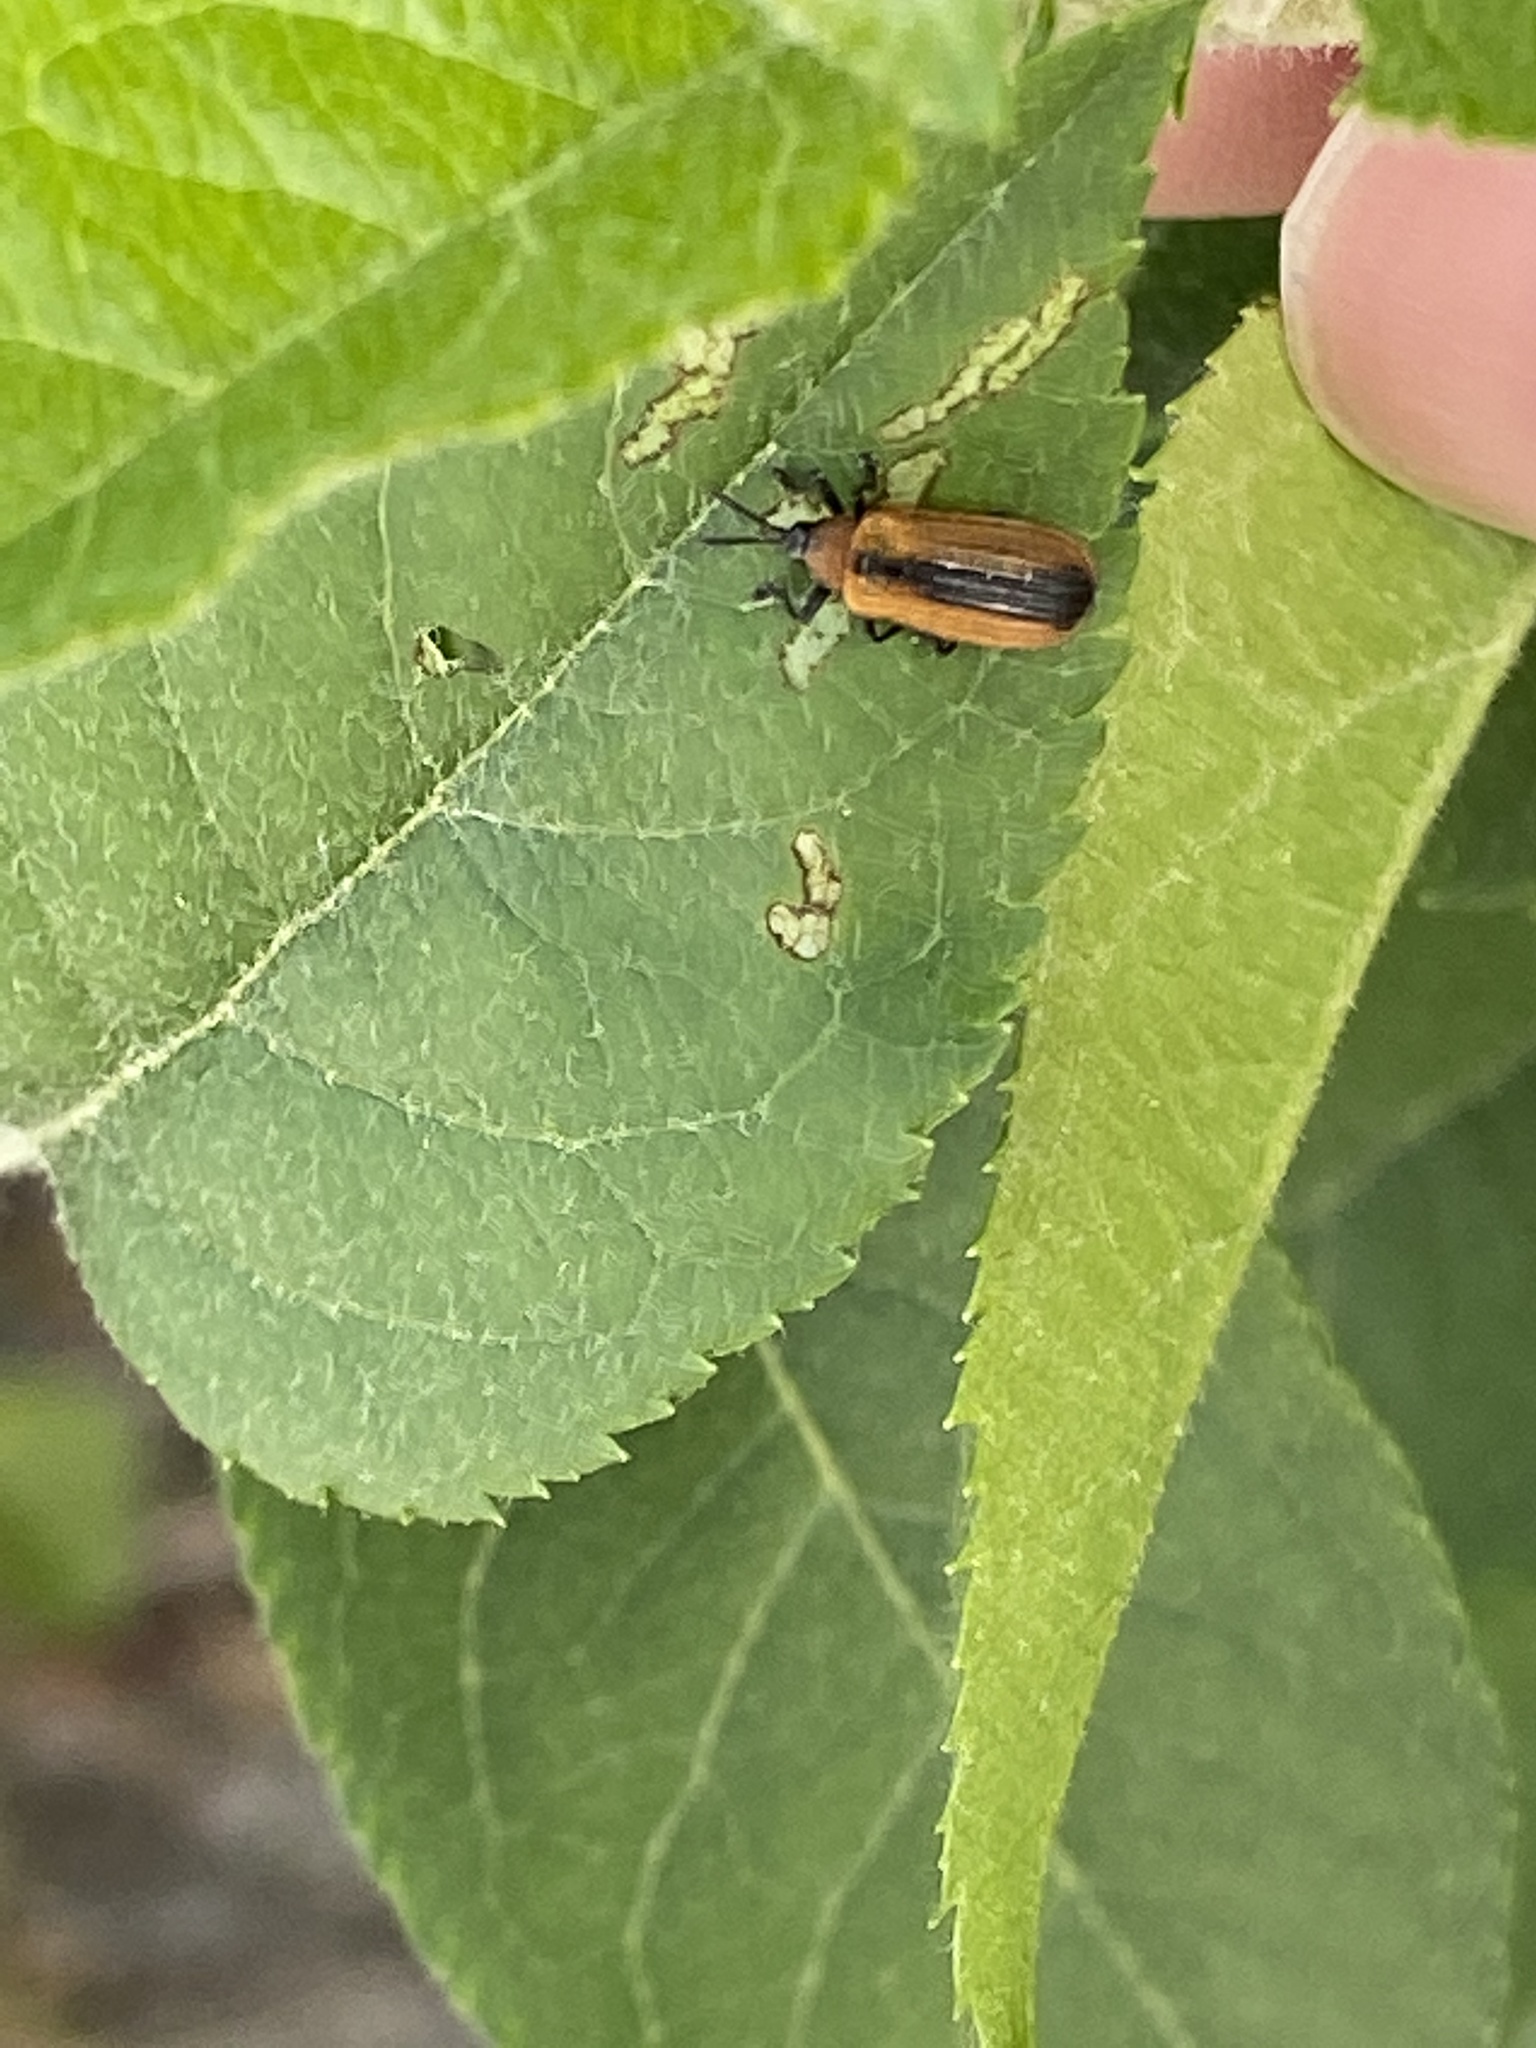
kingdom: Animalia
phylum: Arthropoda
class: Insecta
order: Coleoptera
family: Chrysomelidae
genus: Odontota
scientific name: Odontota dorsalis
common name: Locust leaf-miner beetle
